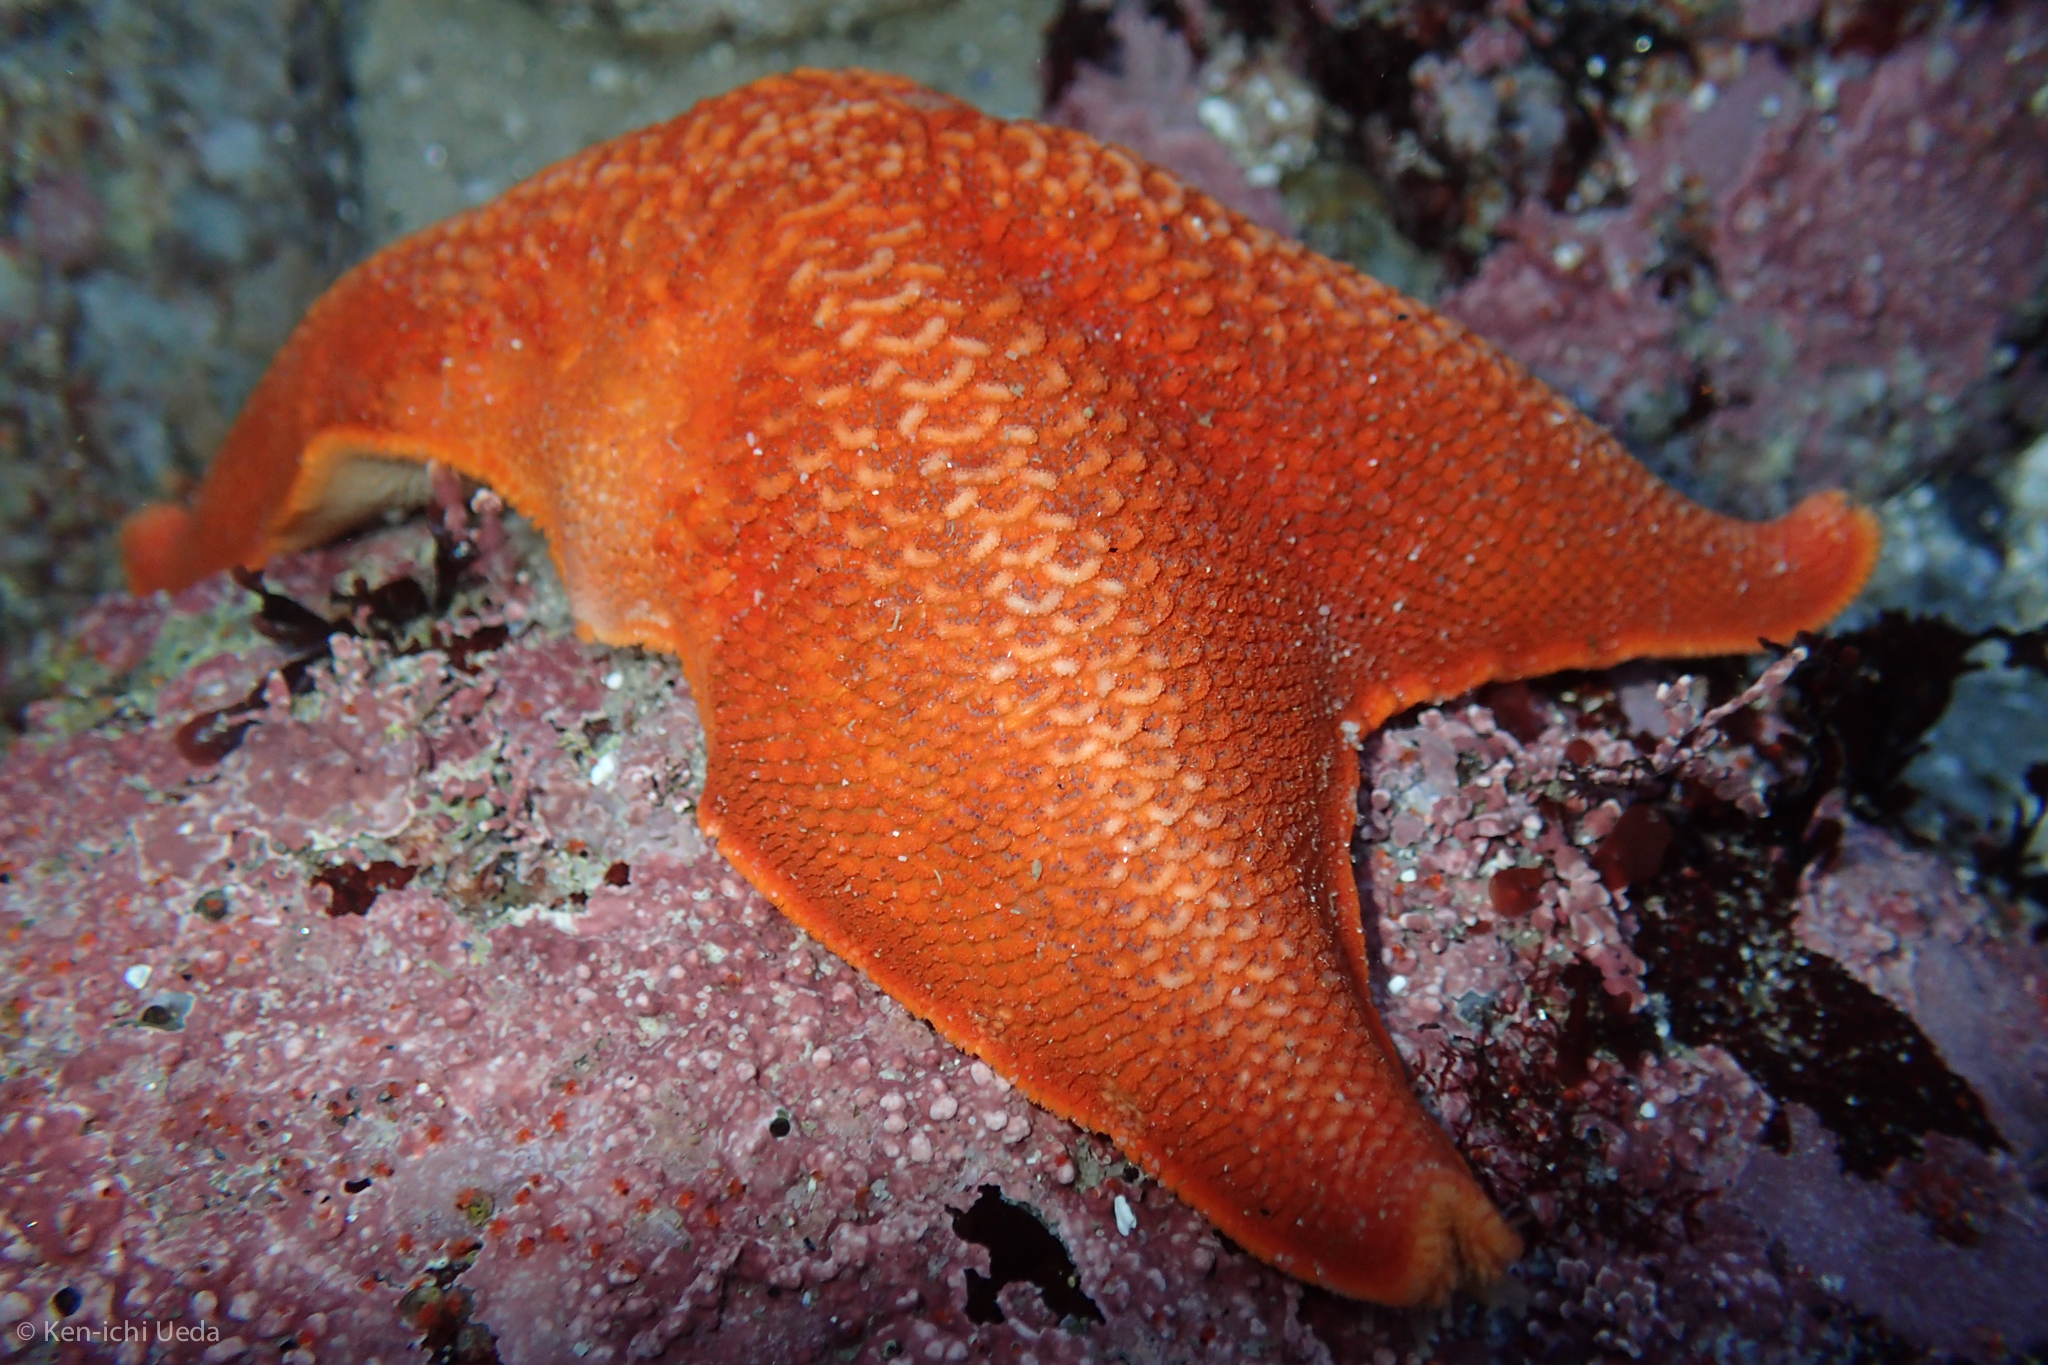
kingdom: Animalia
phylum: Echinodermata
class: Asteroidea
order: Valvatida
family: Asterinidae
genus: Patiria
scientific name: Patiria miniata
